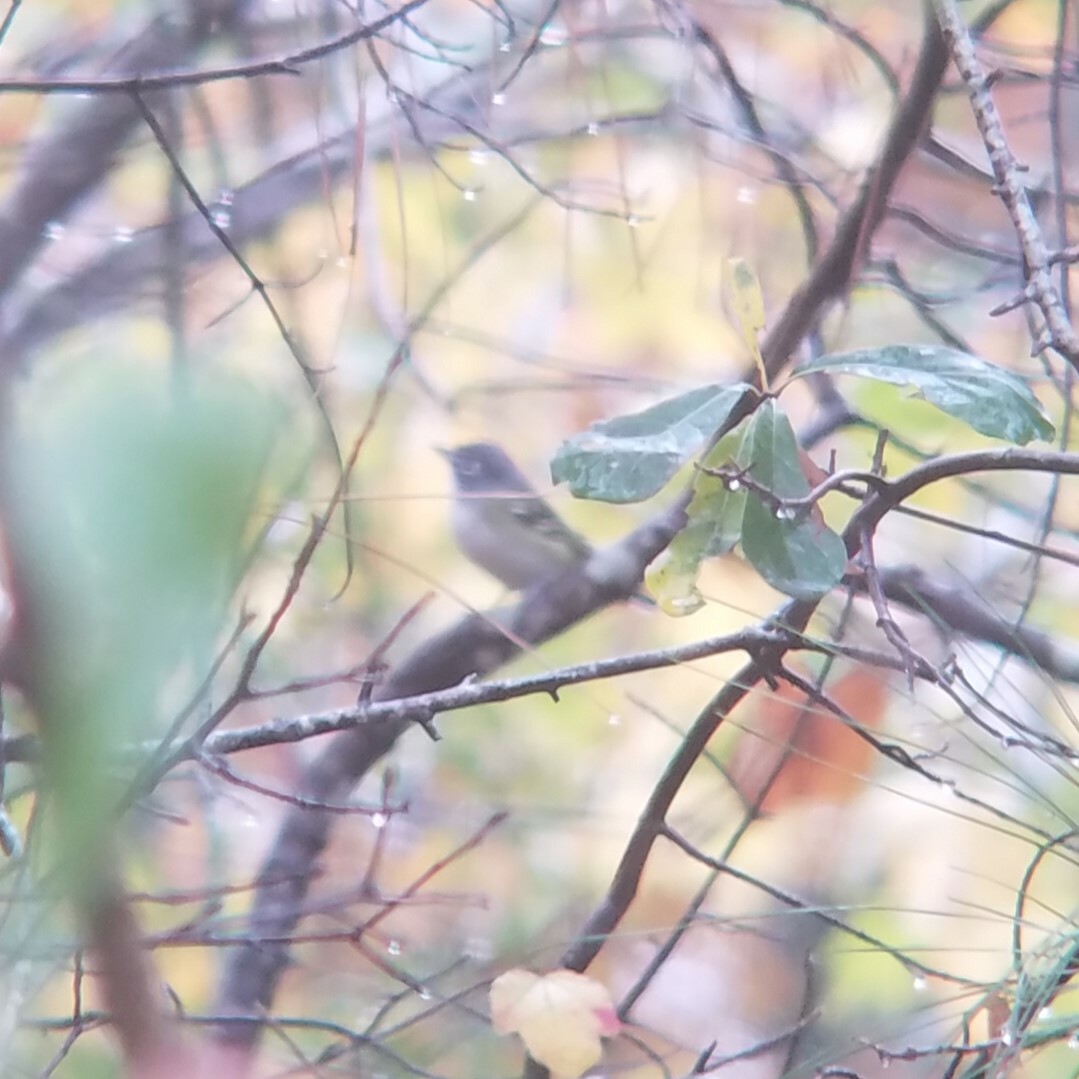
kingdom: Animalia
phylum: Chordata
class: Aves
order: Passeriformes
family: Vireonidae
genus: Vireo
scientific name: Vireo solitarius
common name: Blue-headed vireo
